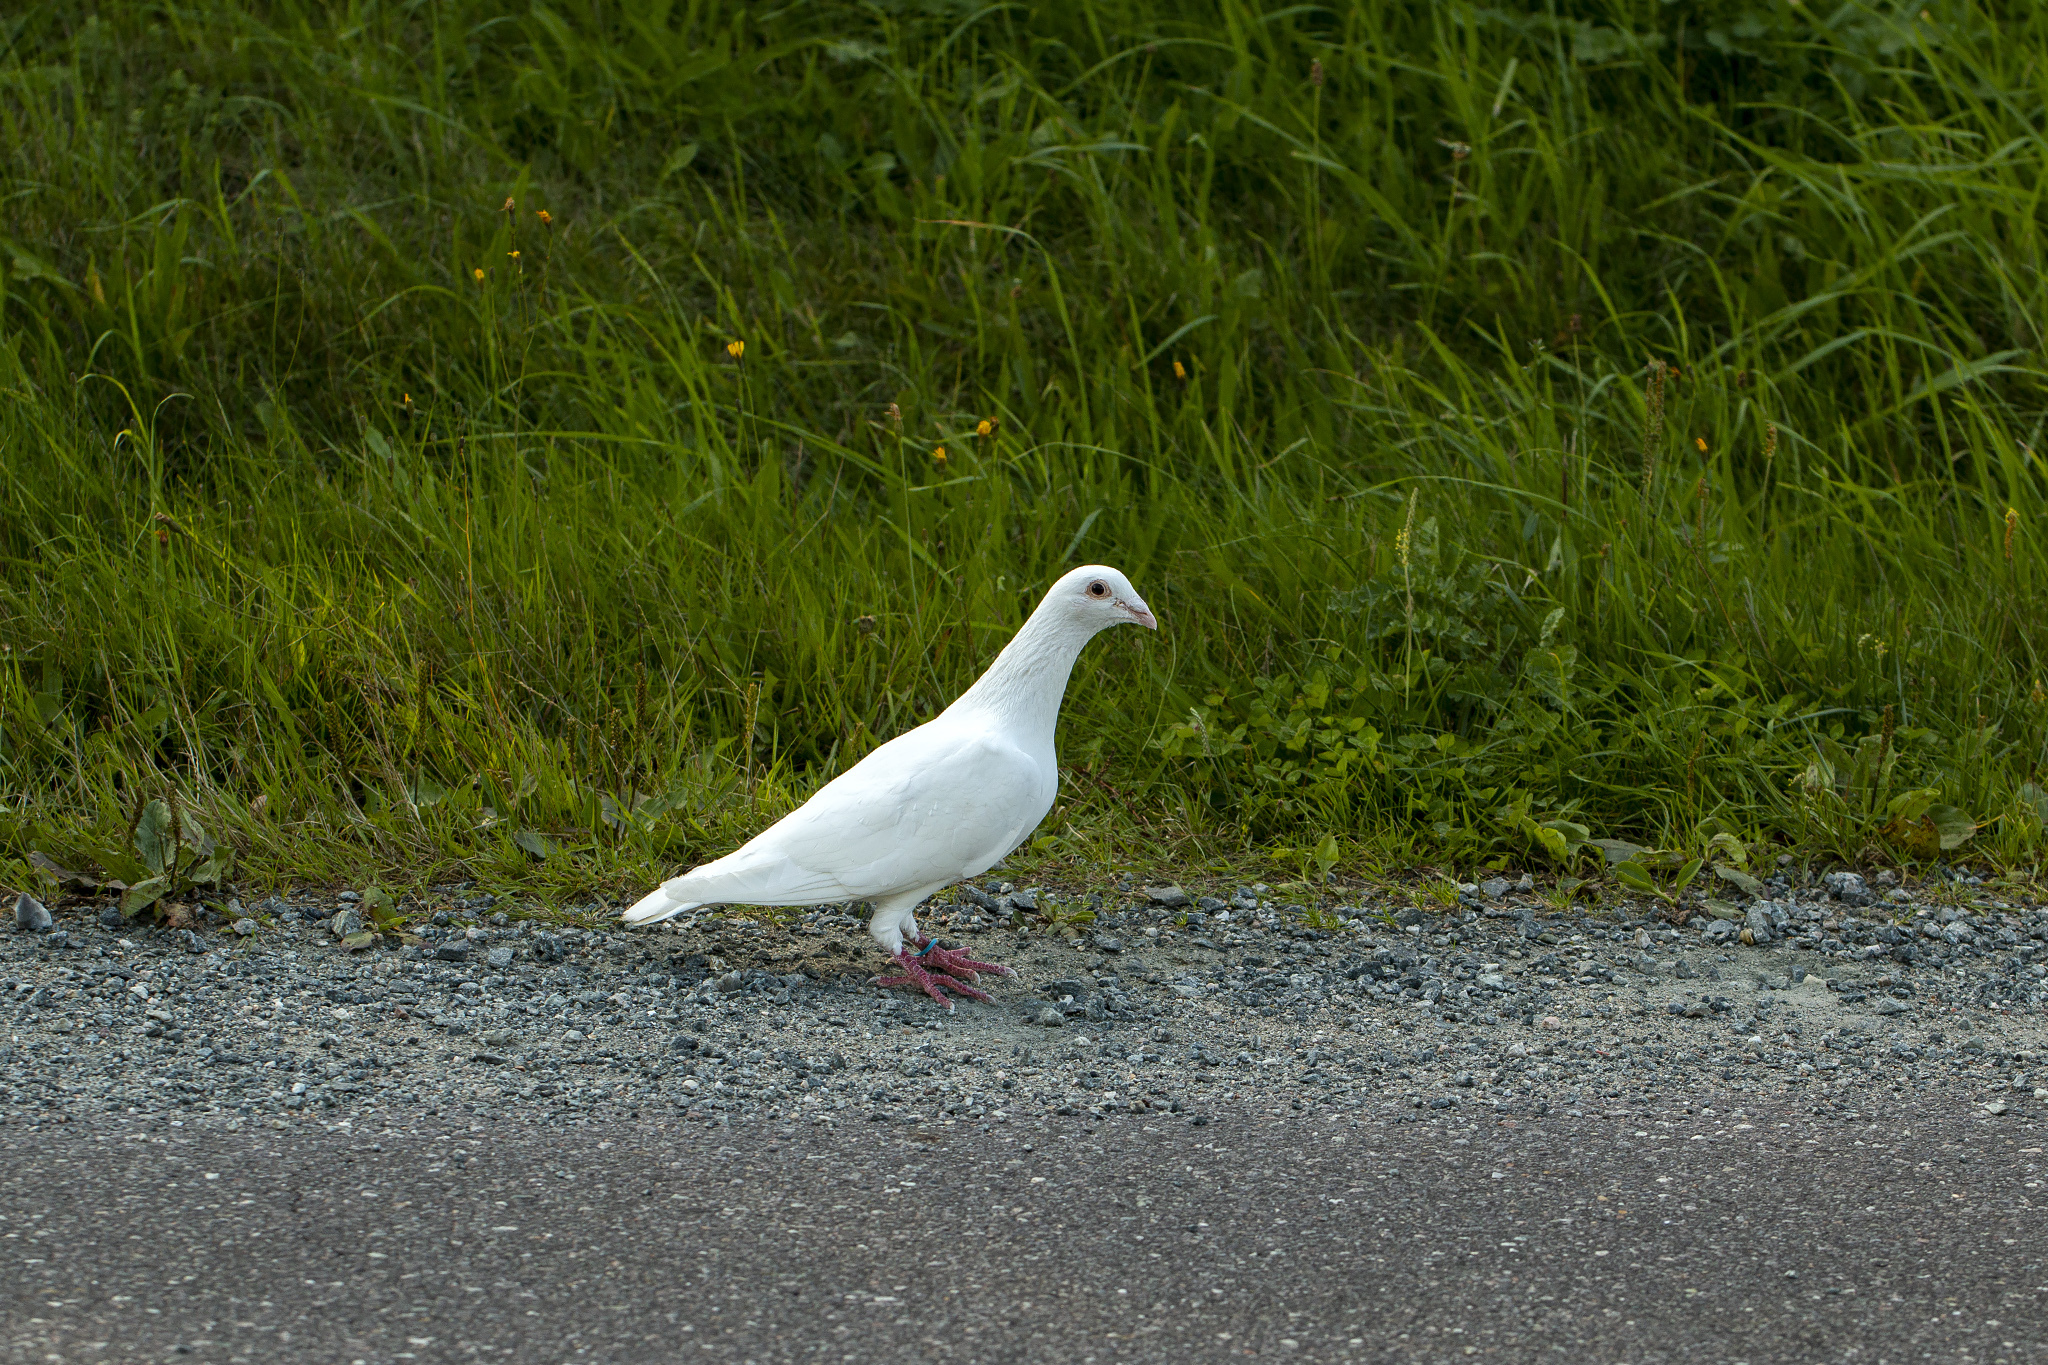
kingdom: Animalia
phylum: Chordata
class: Aves
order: Columbiformes
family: Columbidae
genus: Columba
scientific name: Columba livia
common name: Rock pigeon
